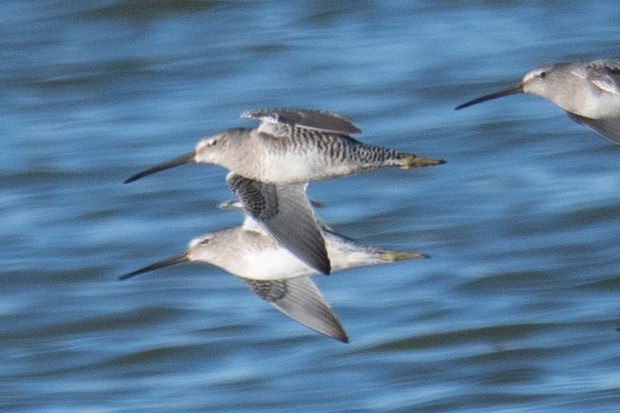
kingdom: Animalia
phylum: Chordata
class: Aves
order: Charadriiformes
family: Scolopacidae
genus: Limnodromus
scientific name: Limnodromus scolopaceus
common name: Long-billed dowitcher
